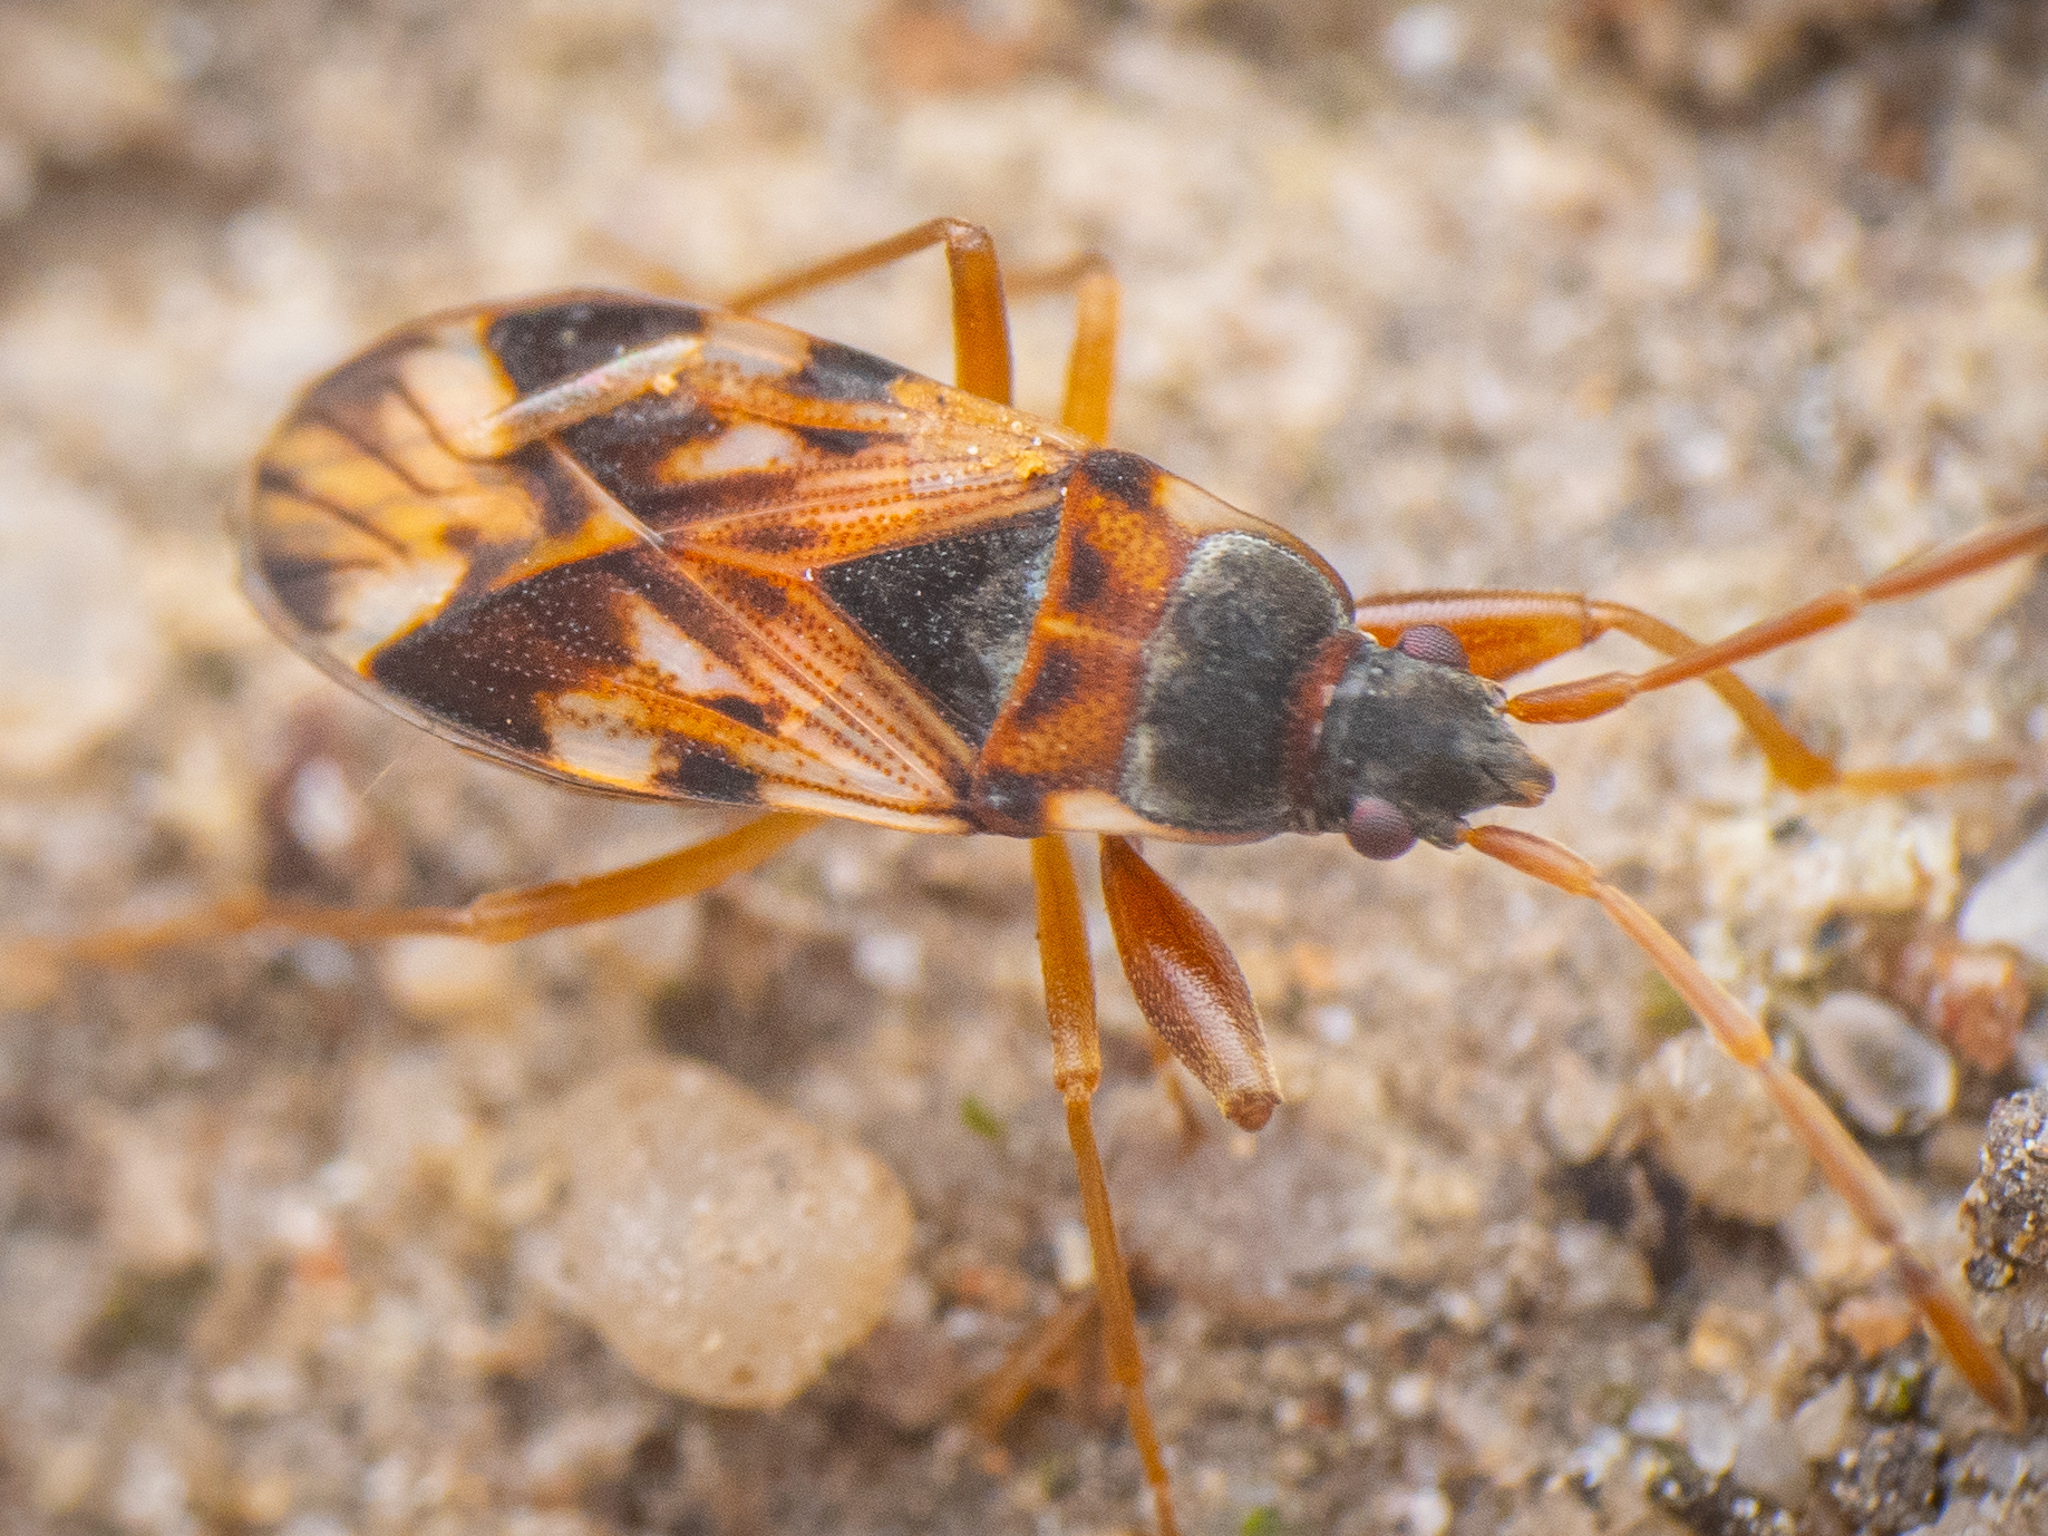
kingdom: Animalia
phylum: Arthropoda
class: Insecta
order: Hemiptera
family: Rhyparochromidae
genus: Scolopostethus
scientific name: Scolopostethus pictus
